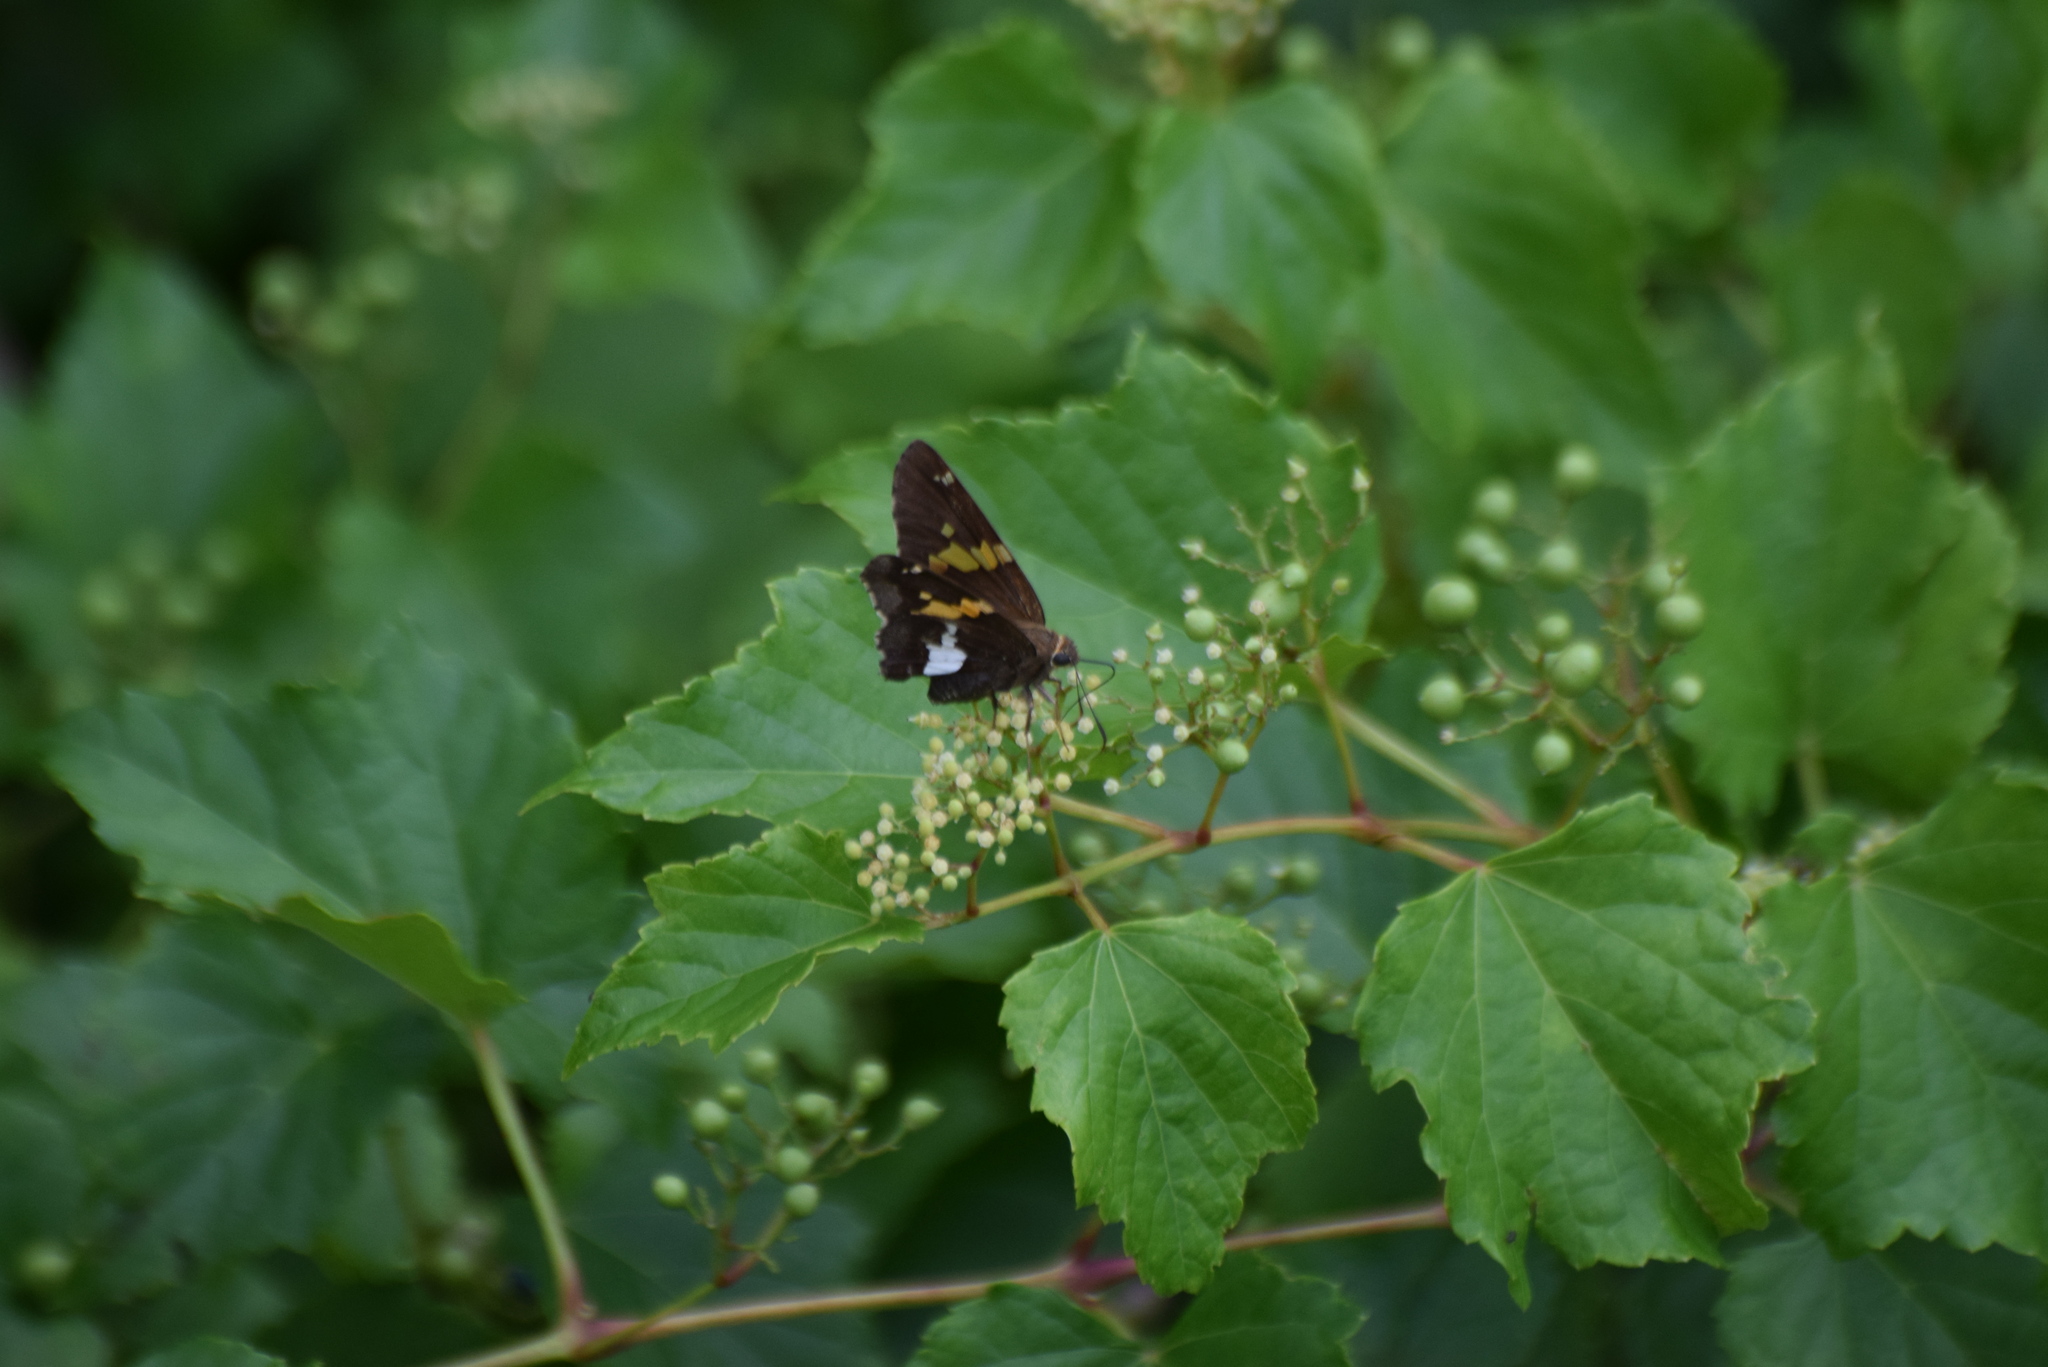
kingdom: Animalia
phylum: Arthropoda
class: Insecta
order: Lepidoptera
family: Hesperiidae
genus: Epargyreus
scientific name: Epargyreus clarus
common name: Silver-spotted skipper
